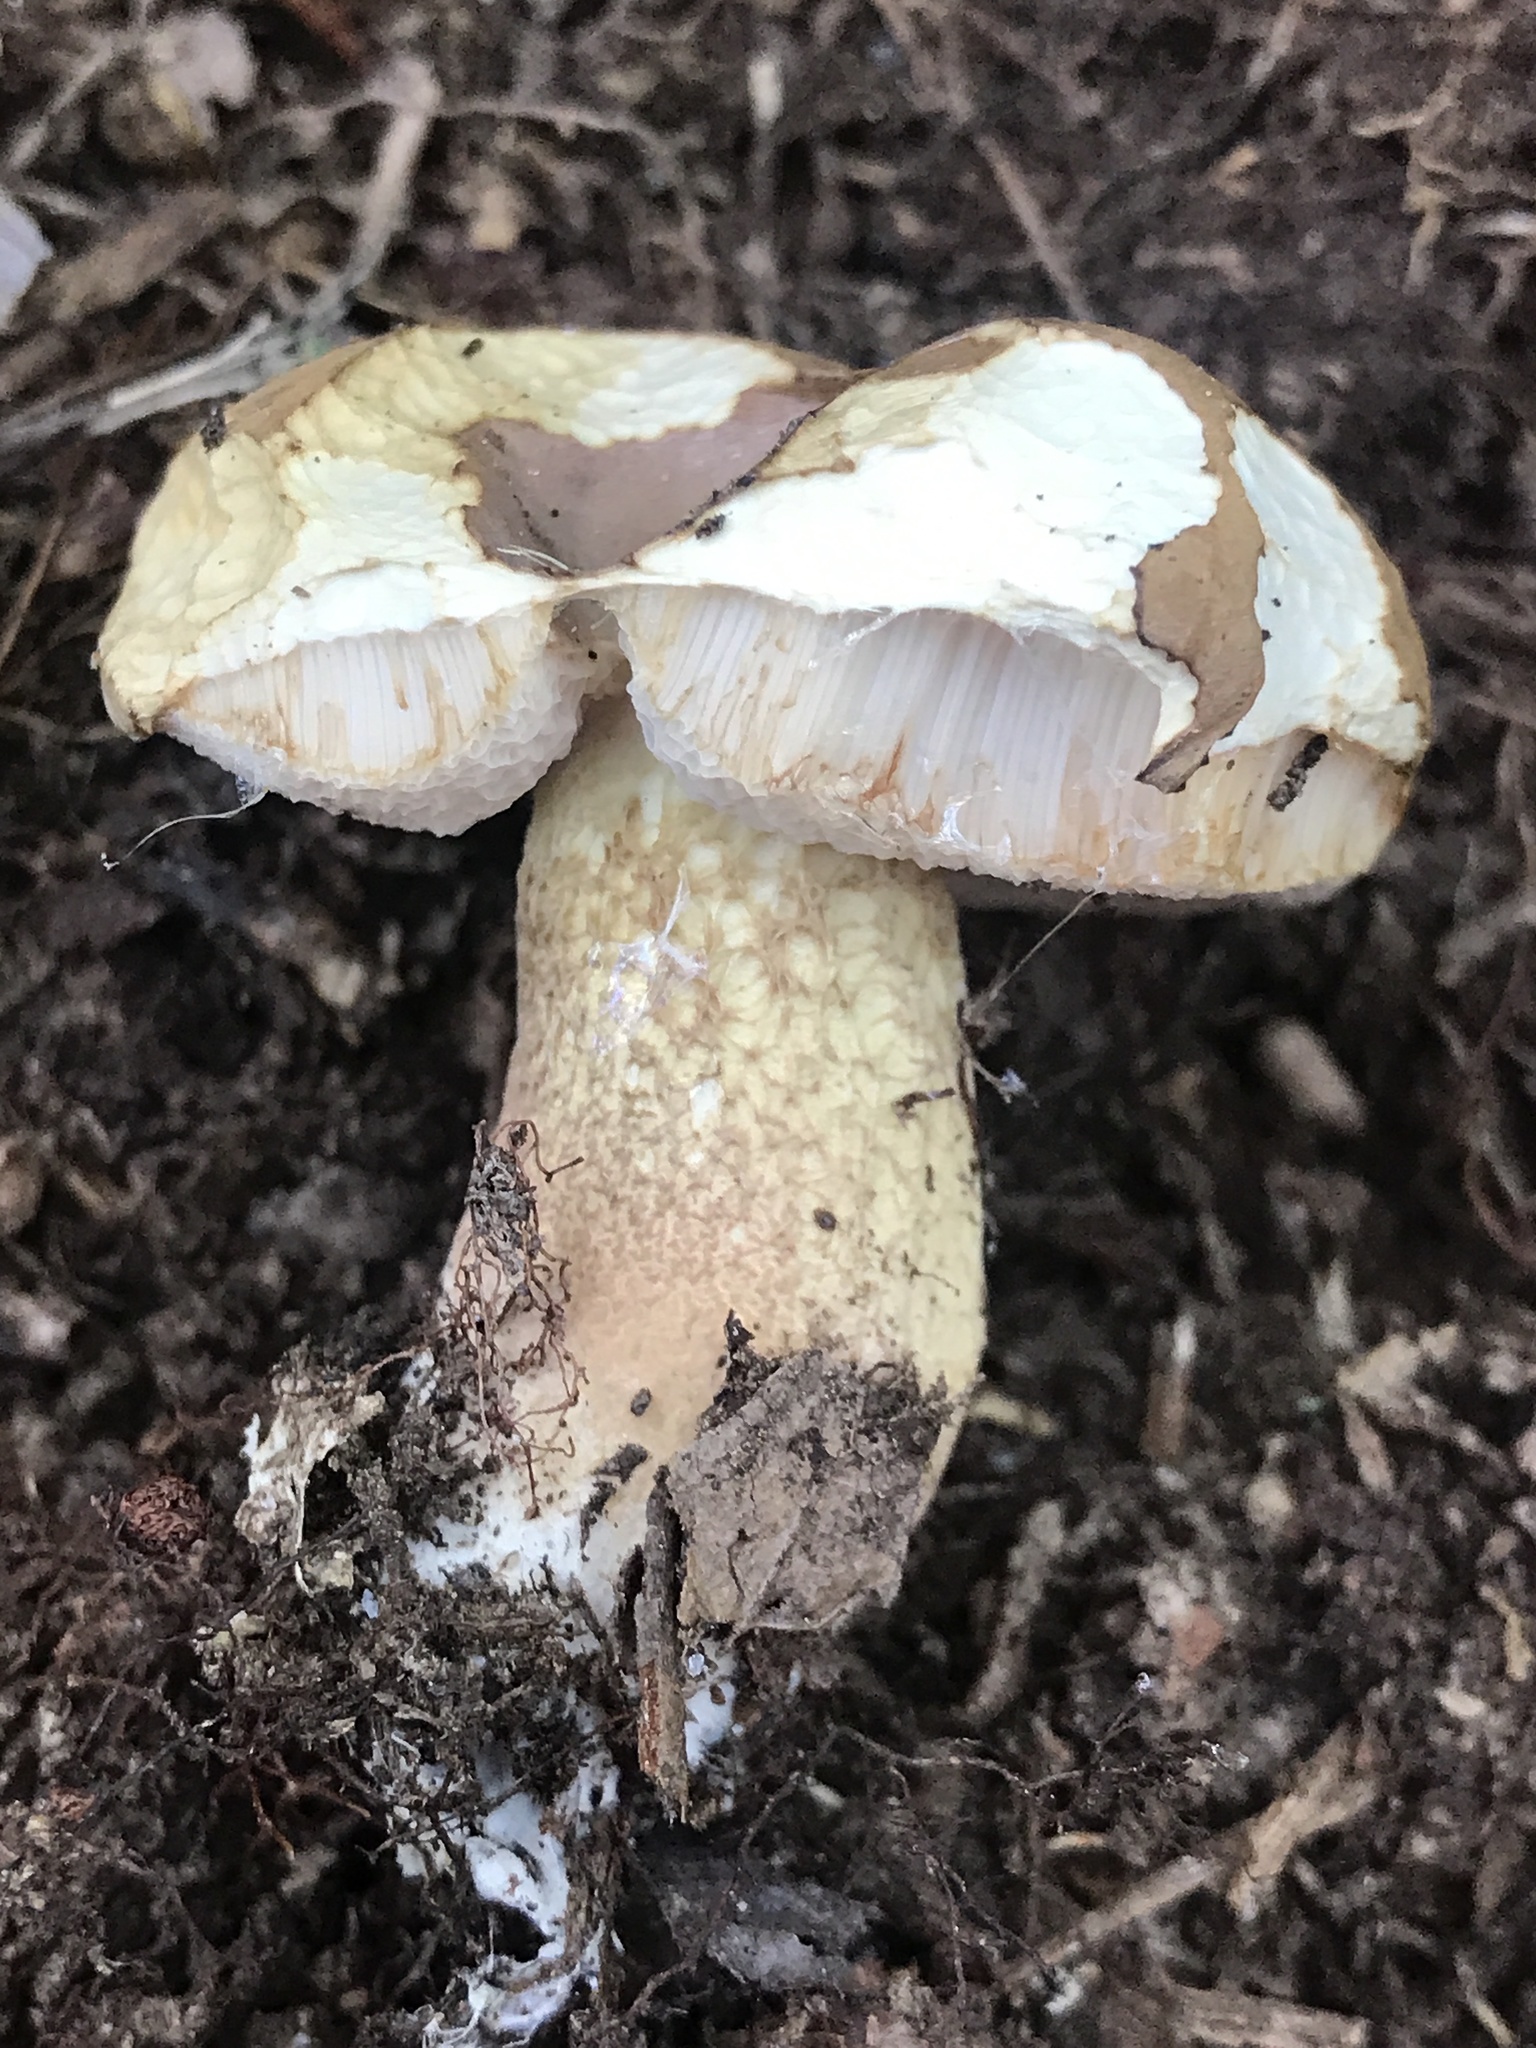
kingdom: Fungi
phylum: Basidiomycota
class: Agaricomycetes
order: Boletales
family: Boletaceae
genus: Tylopilus
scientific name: Tylopilus felleus
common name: Bitter bolete
